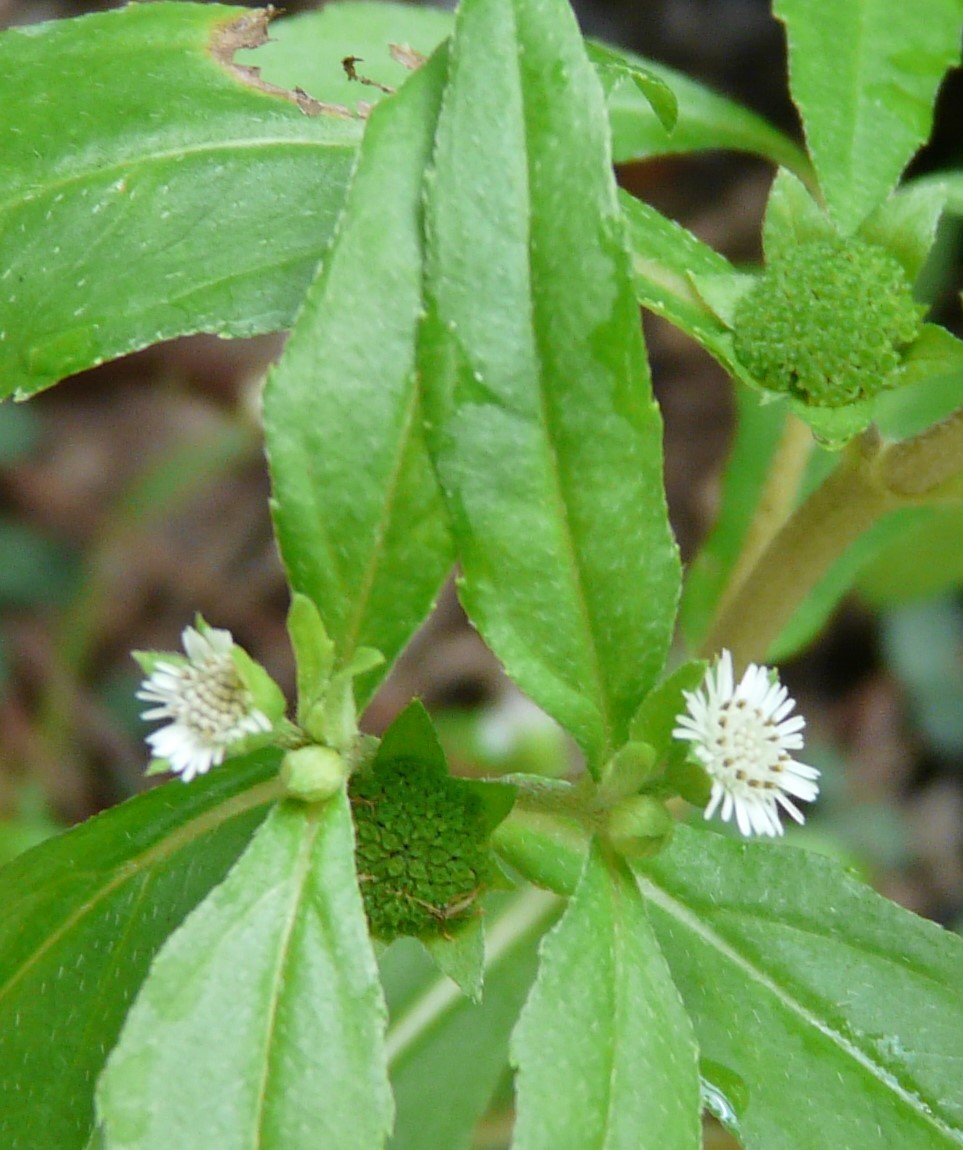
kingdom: Plantae
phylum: Tracheophyta
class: Magnoliopsida
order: Asterales
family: Asteraceae
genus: Eclipta
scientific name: Eclipta prostrata
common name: False daisy
